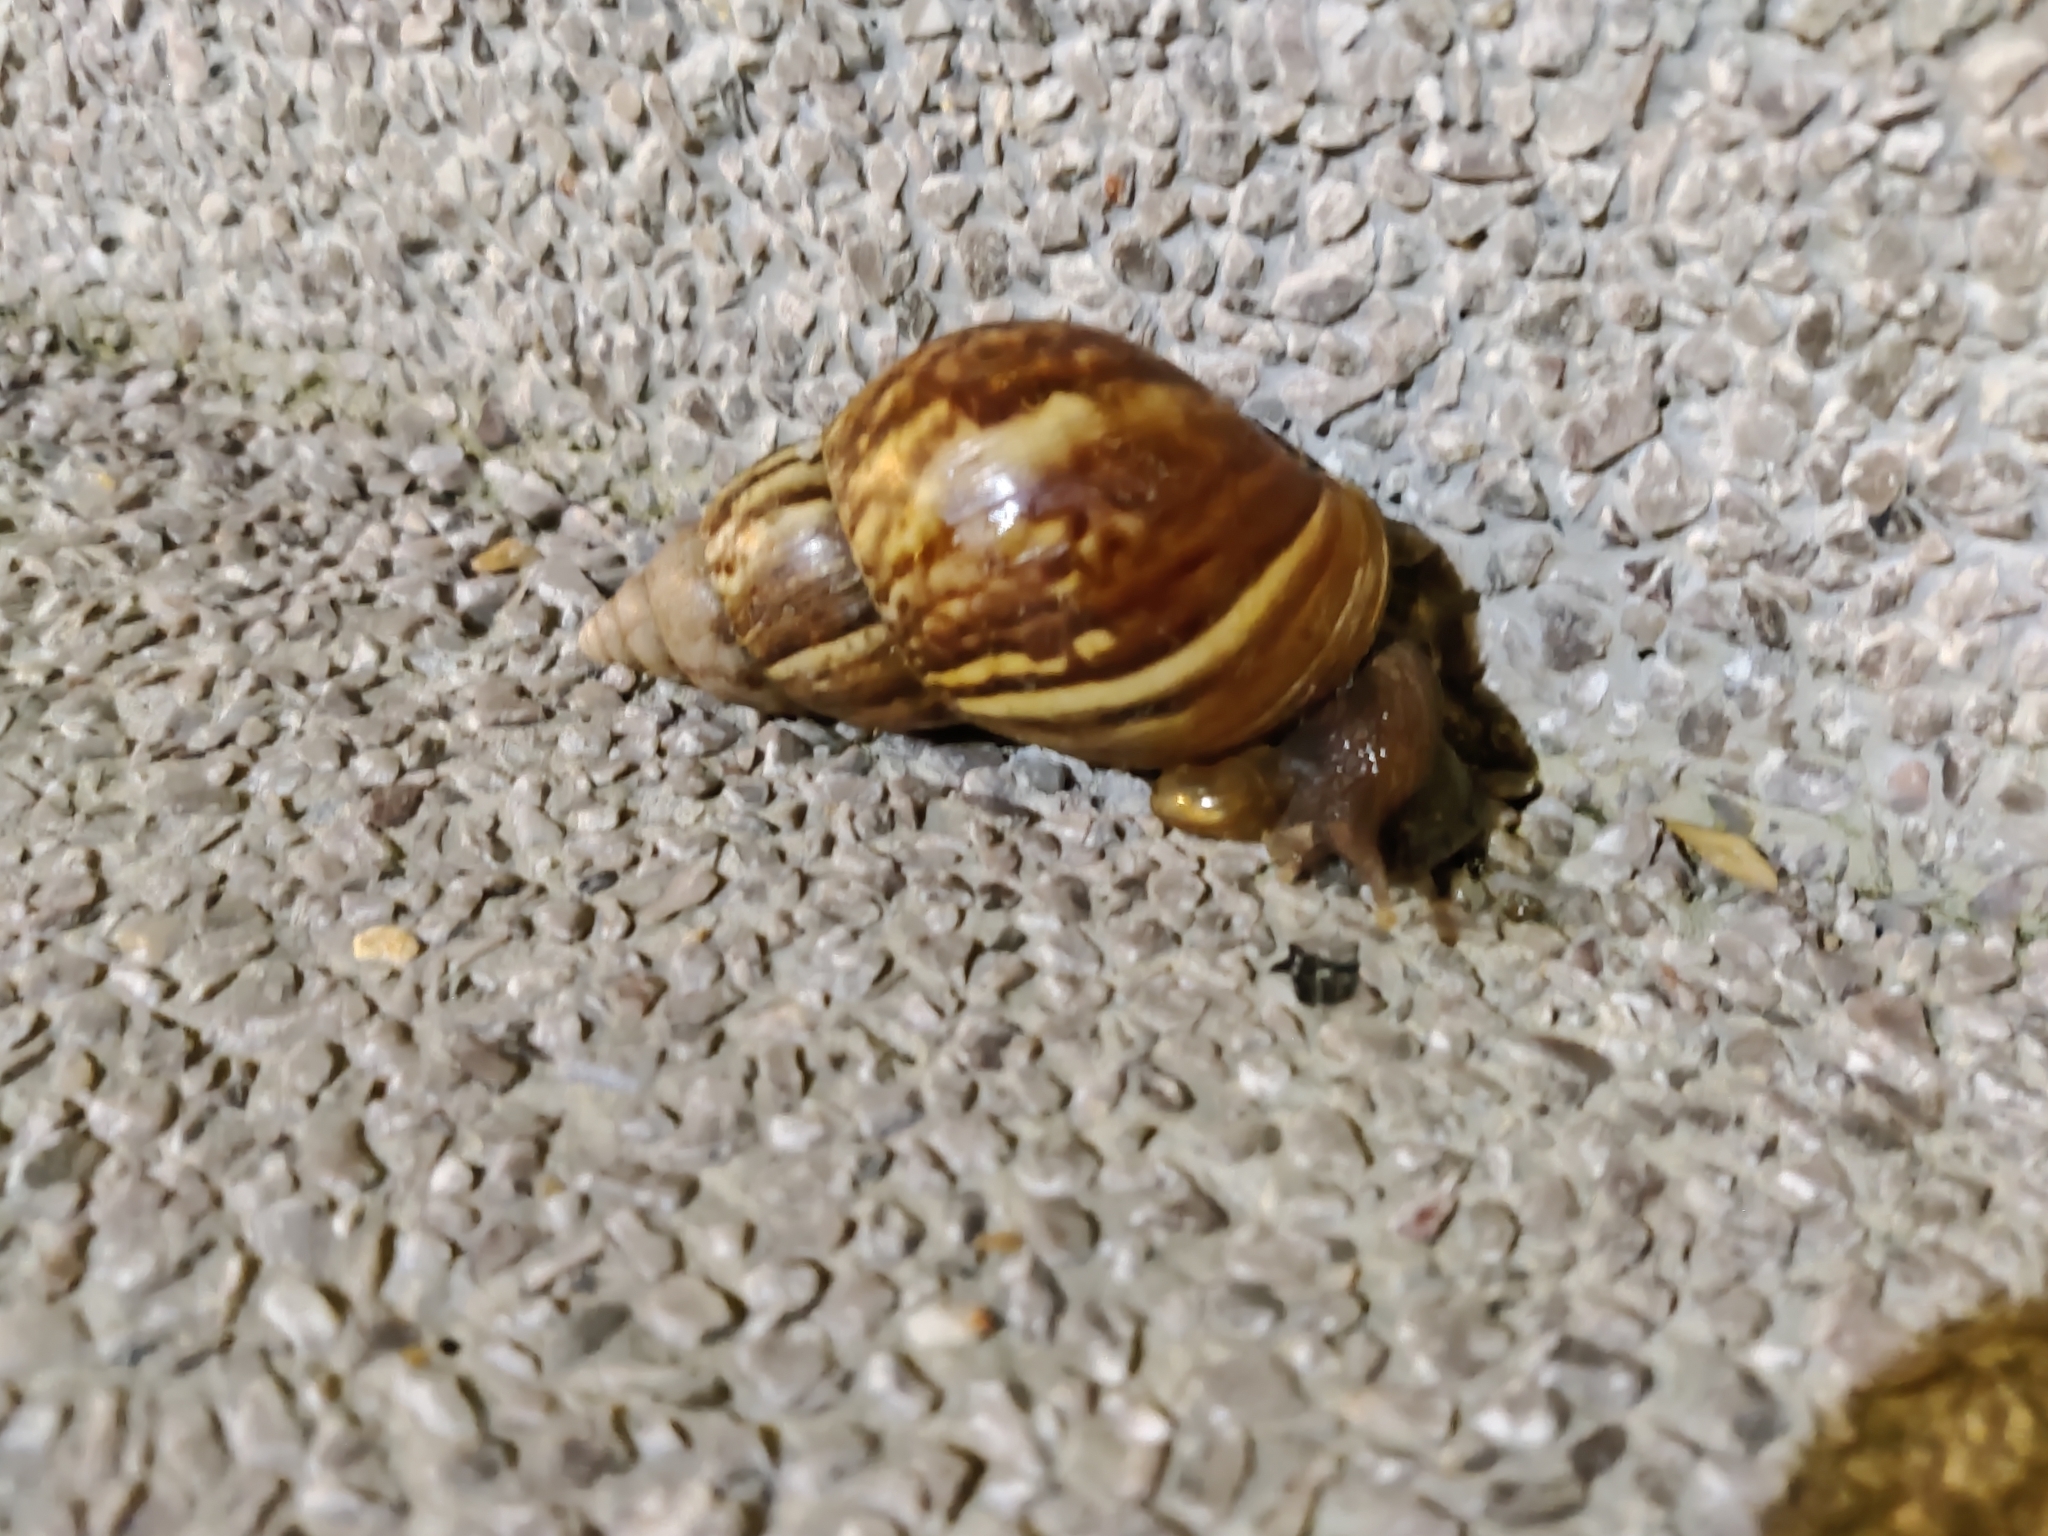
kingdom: Animalia
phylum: Mollusca
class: Gastropoda
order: Stylommatophora
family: Achatinidae
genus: Lissachatina
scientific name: Lissachatina fulica
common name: Giant african snail
